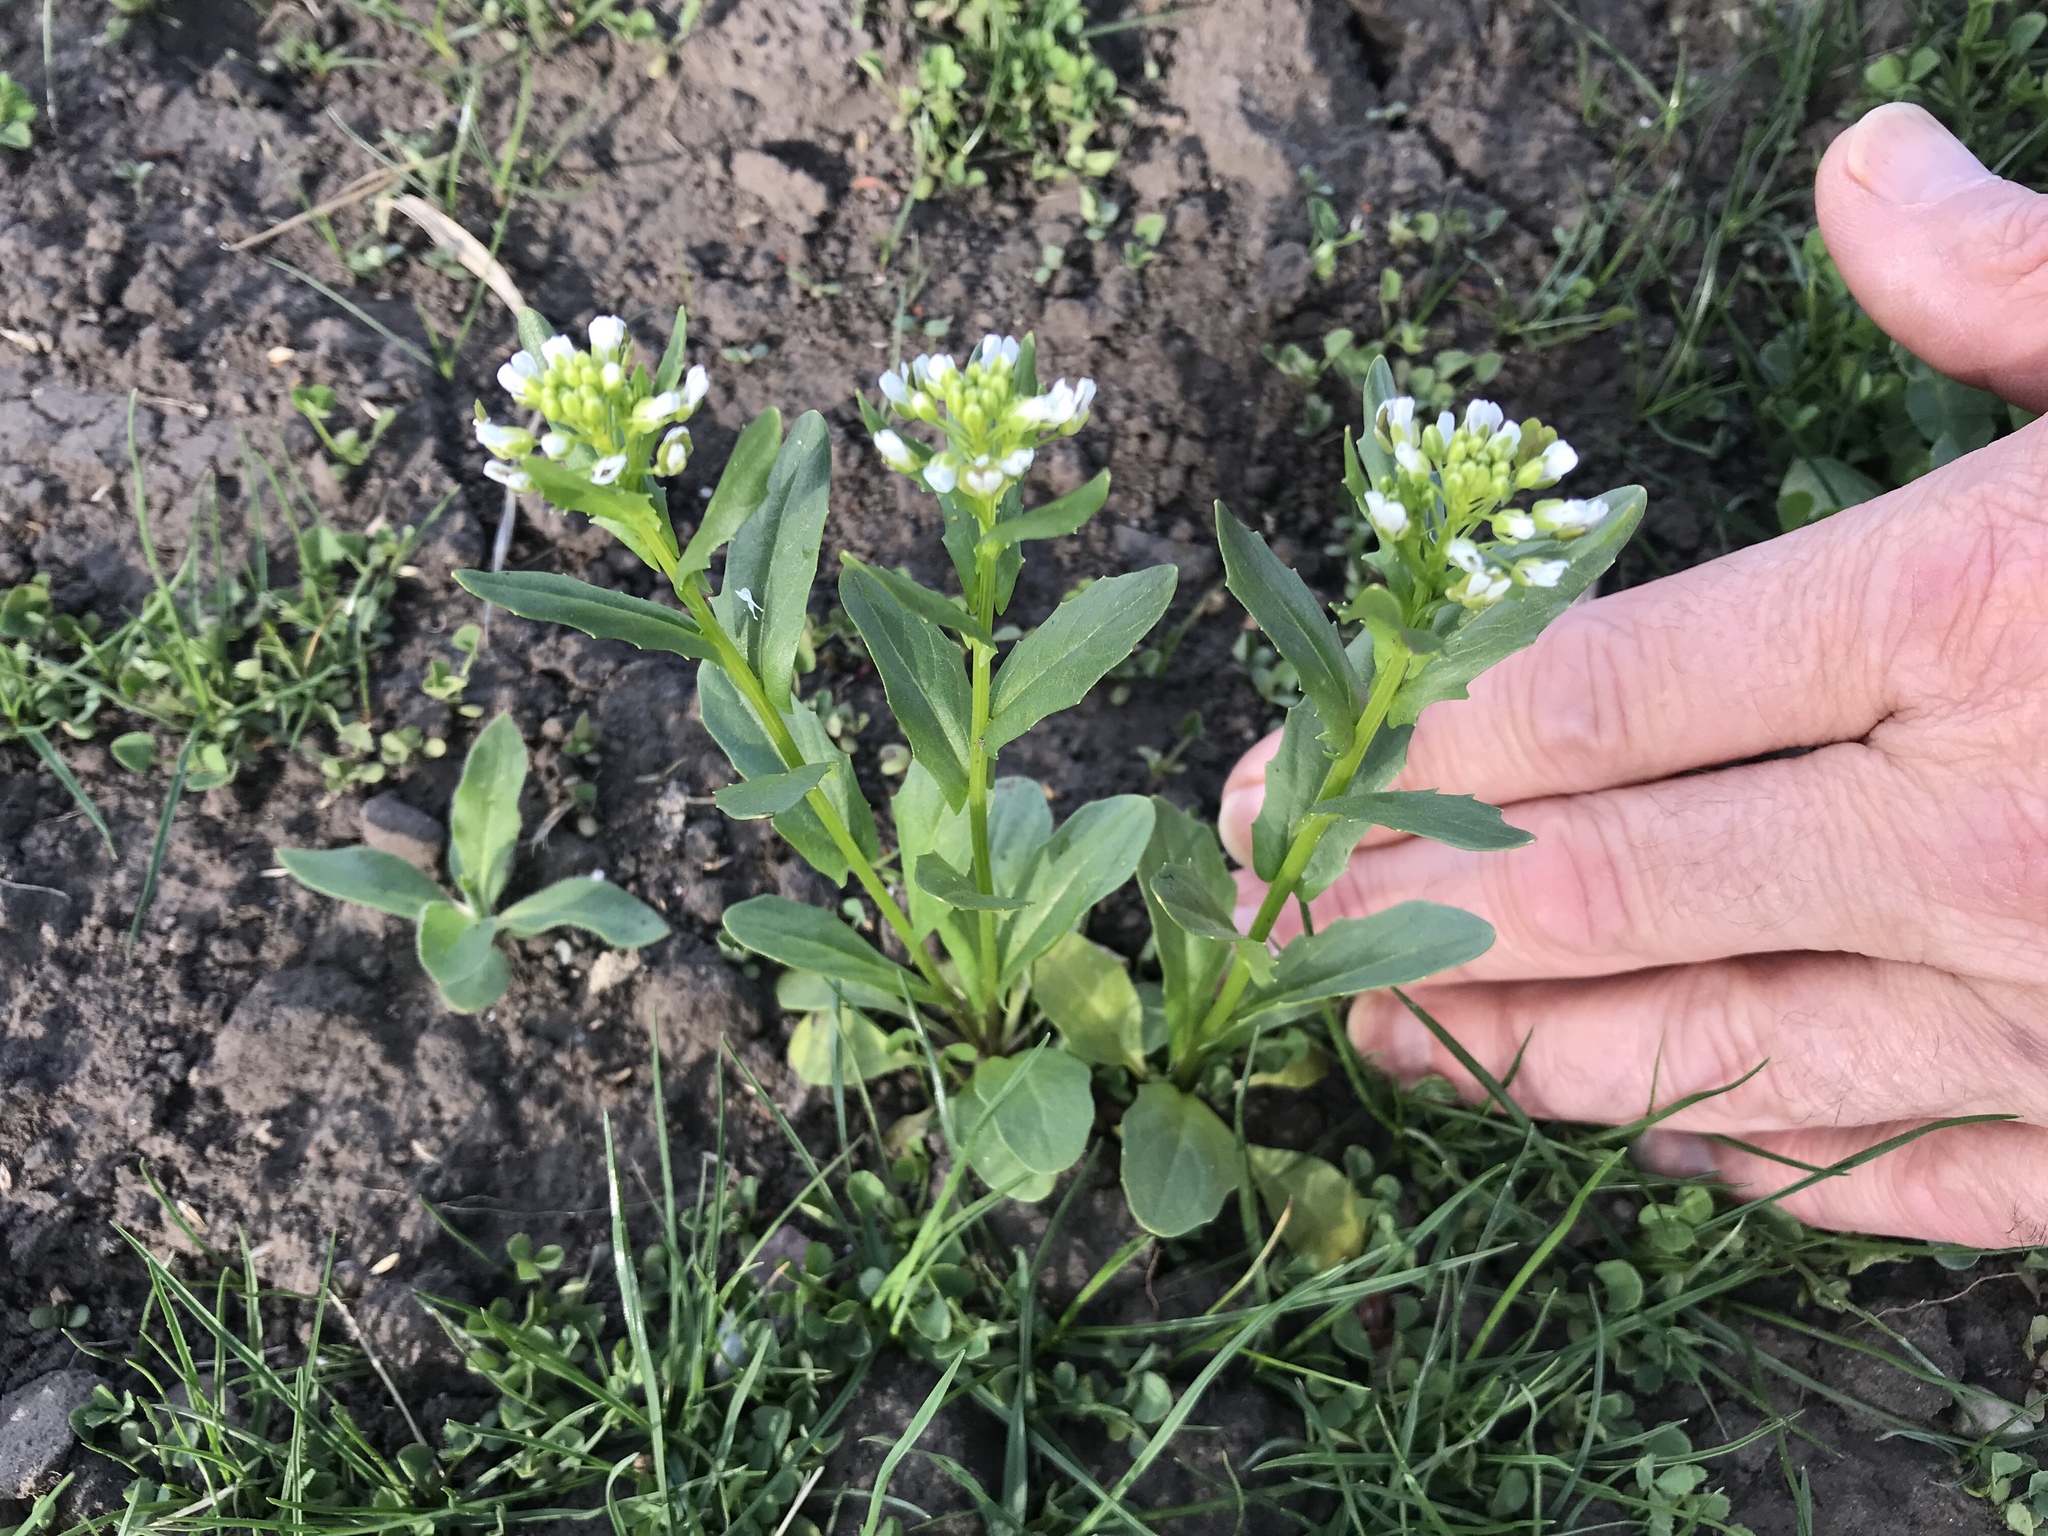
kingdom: Plantae
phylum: Tracheophyta
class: Magnoliopsida
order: Brassicales
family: Brassicaceae
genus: Thlaspi
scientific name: Thlaspi arvense
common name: Field pennycress
